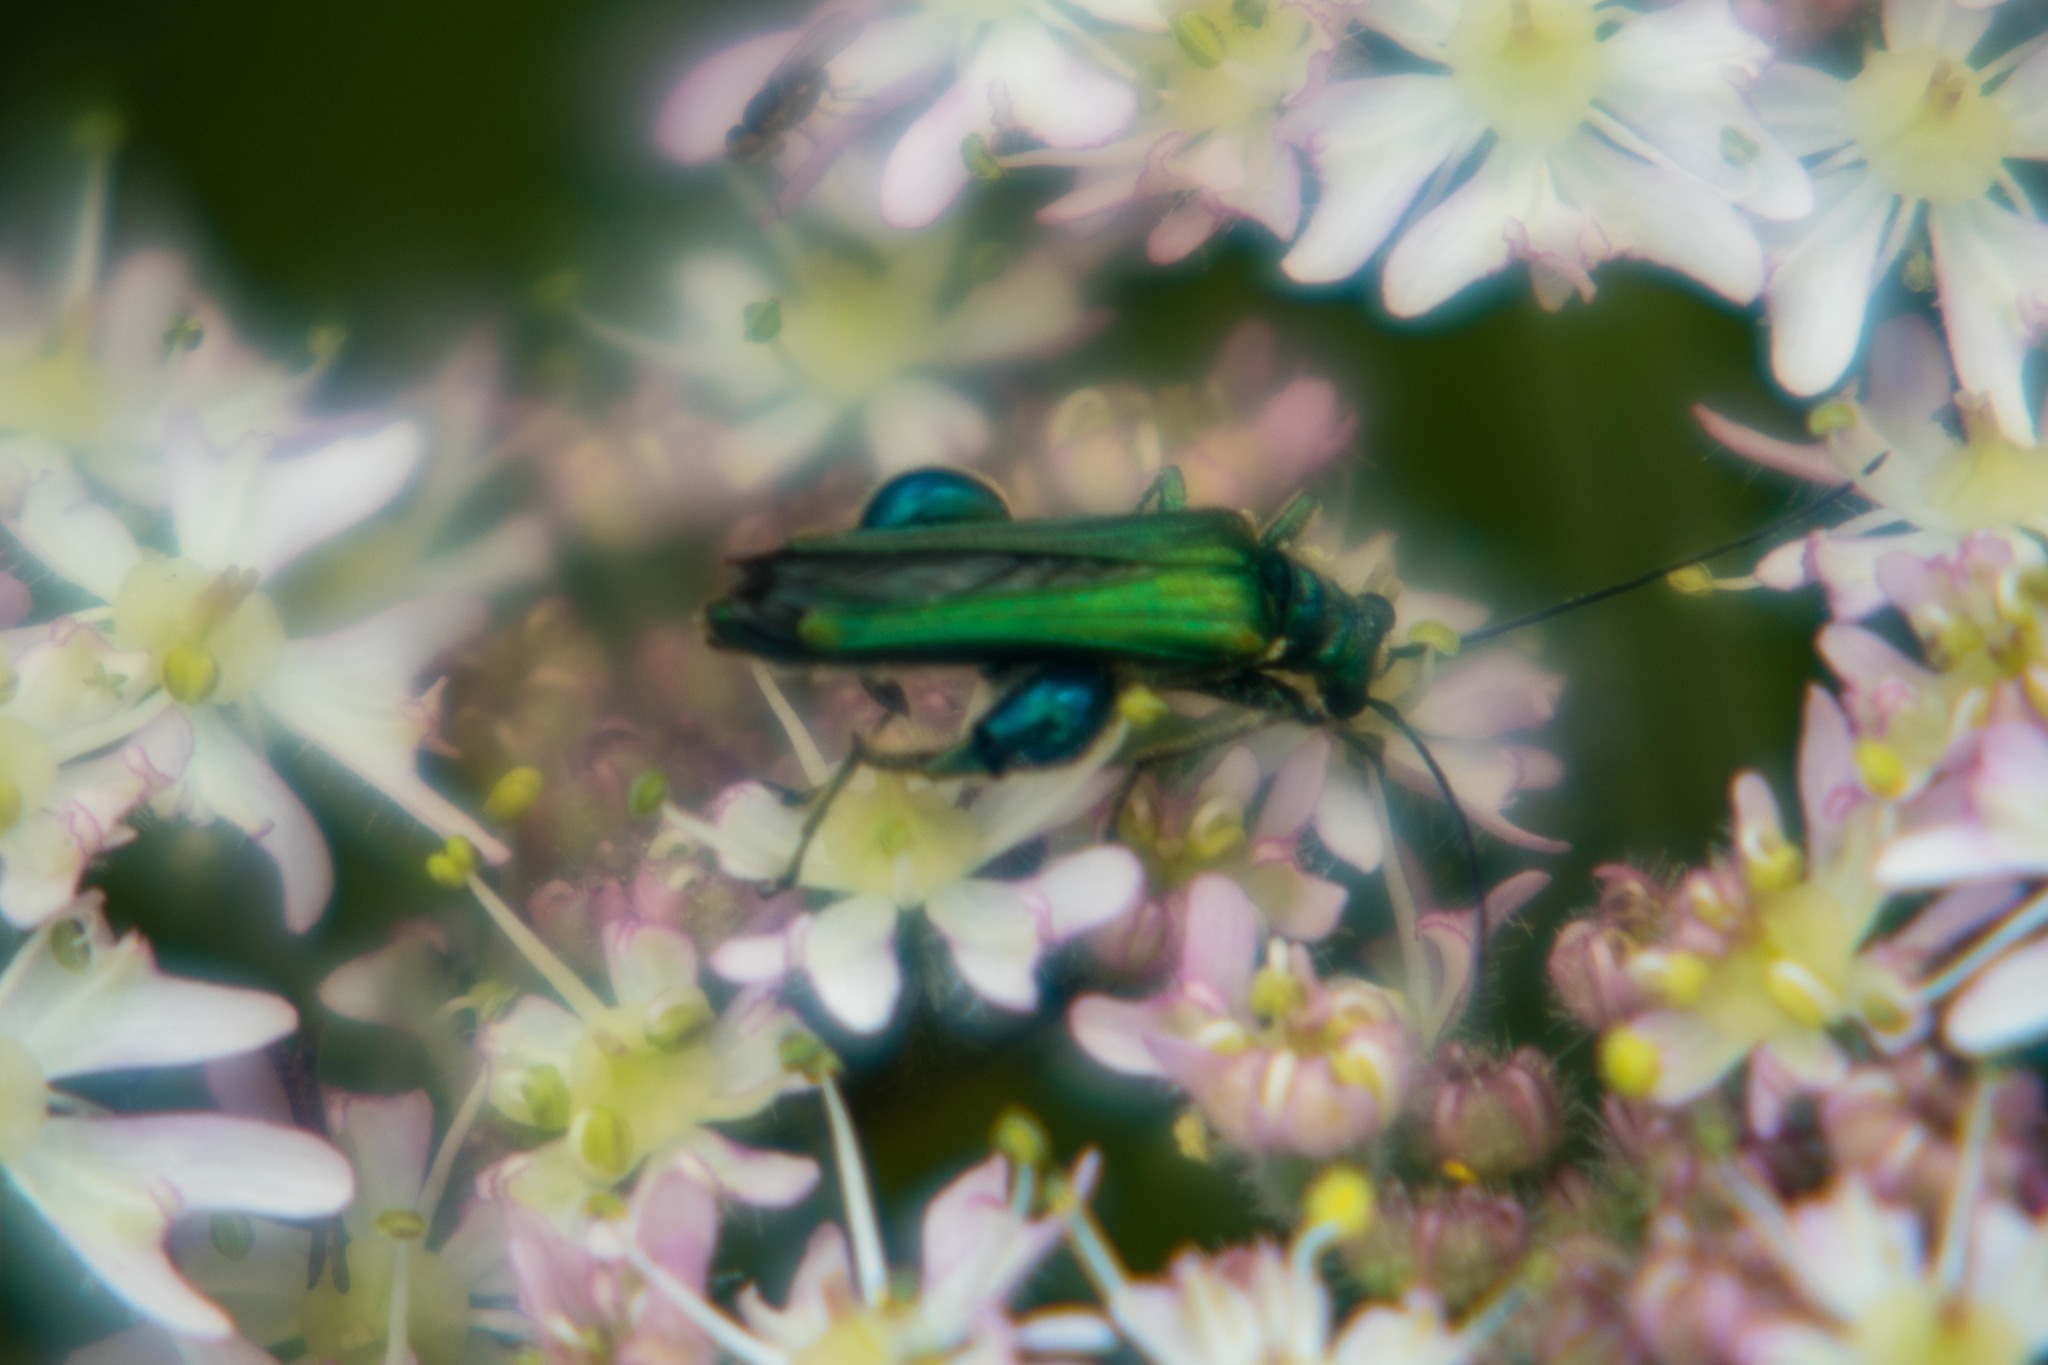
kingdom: Animalia
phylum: Arthropoda
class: Insecta
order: Coleoptera
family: Oedemeridae
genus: Oedemera
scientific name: Oedemera nobilis
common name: Swollen-thighed beetle
